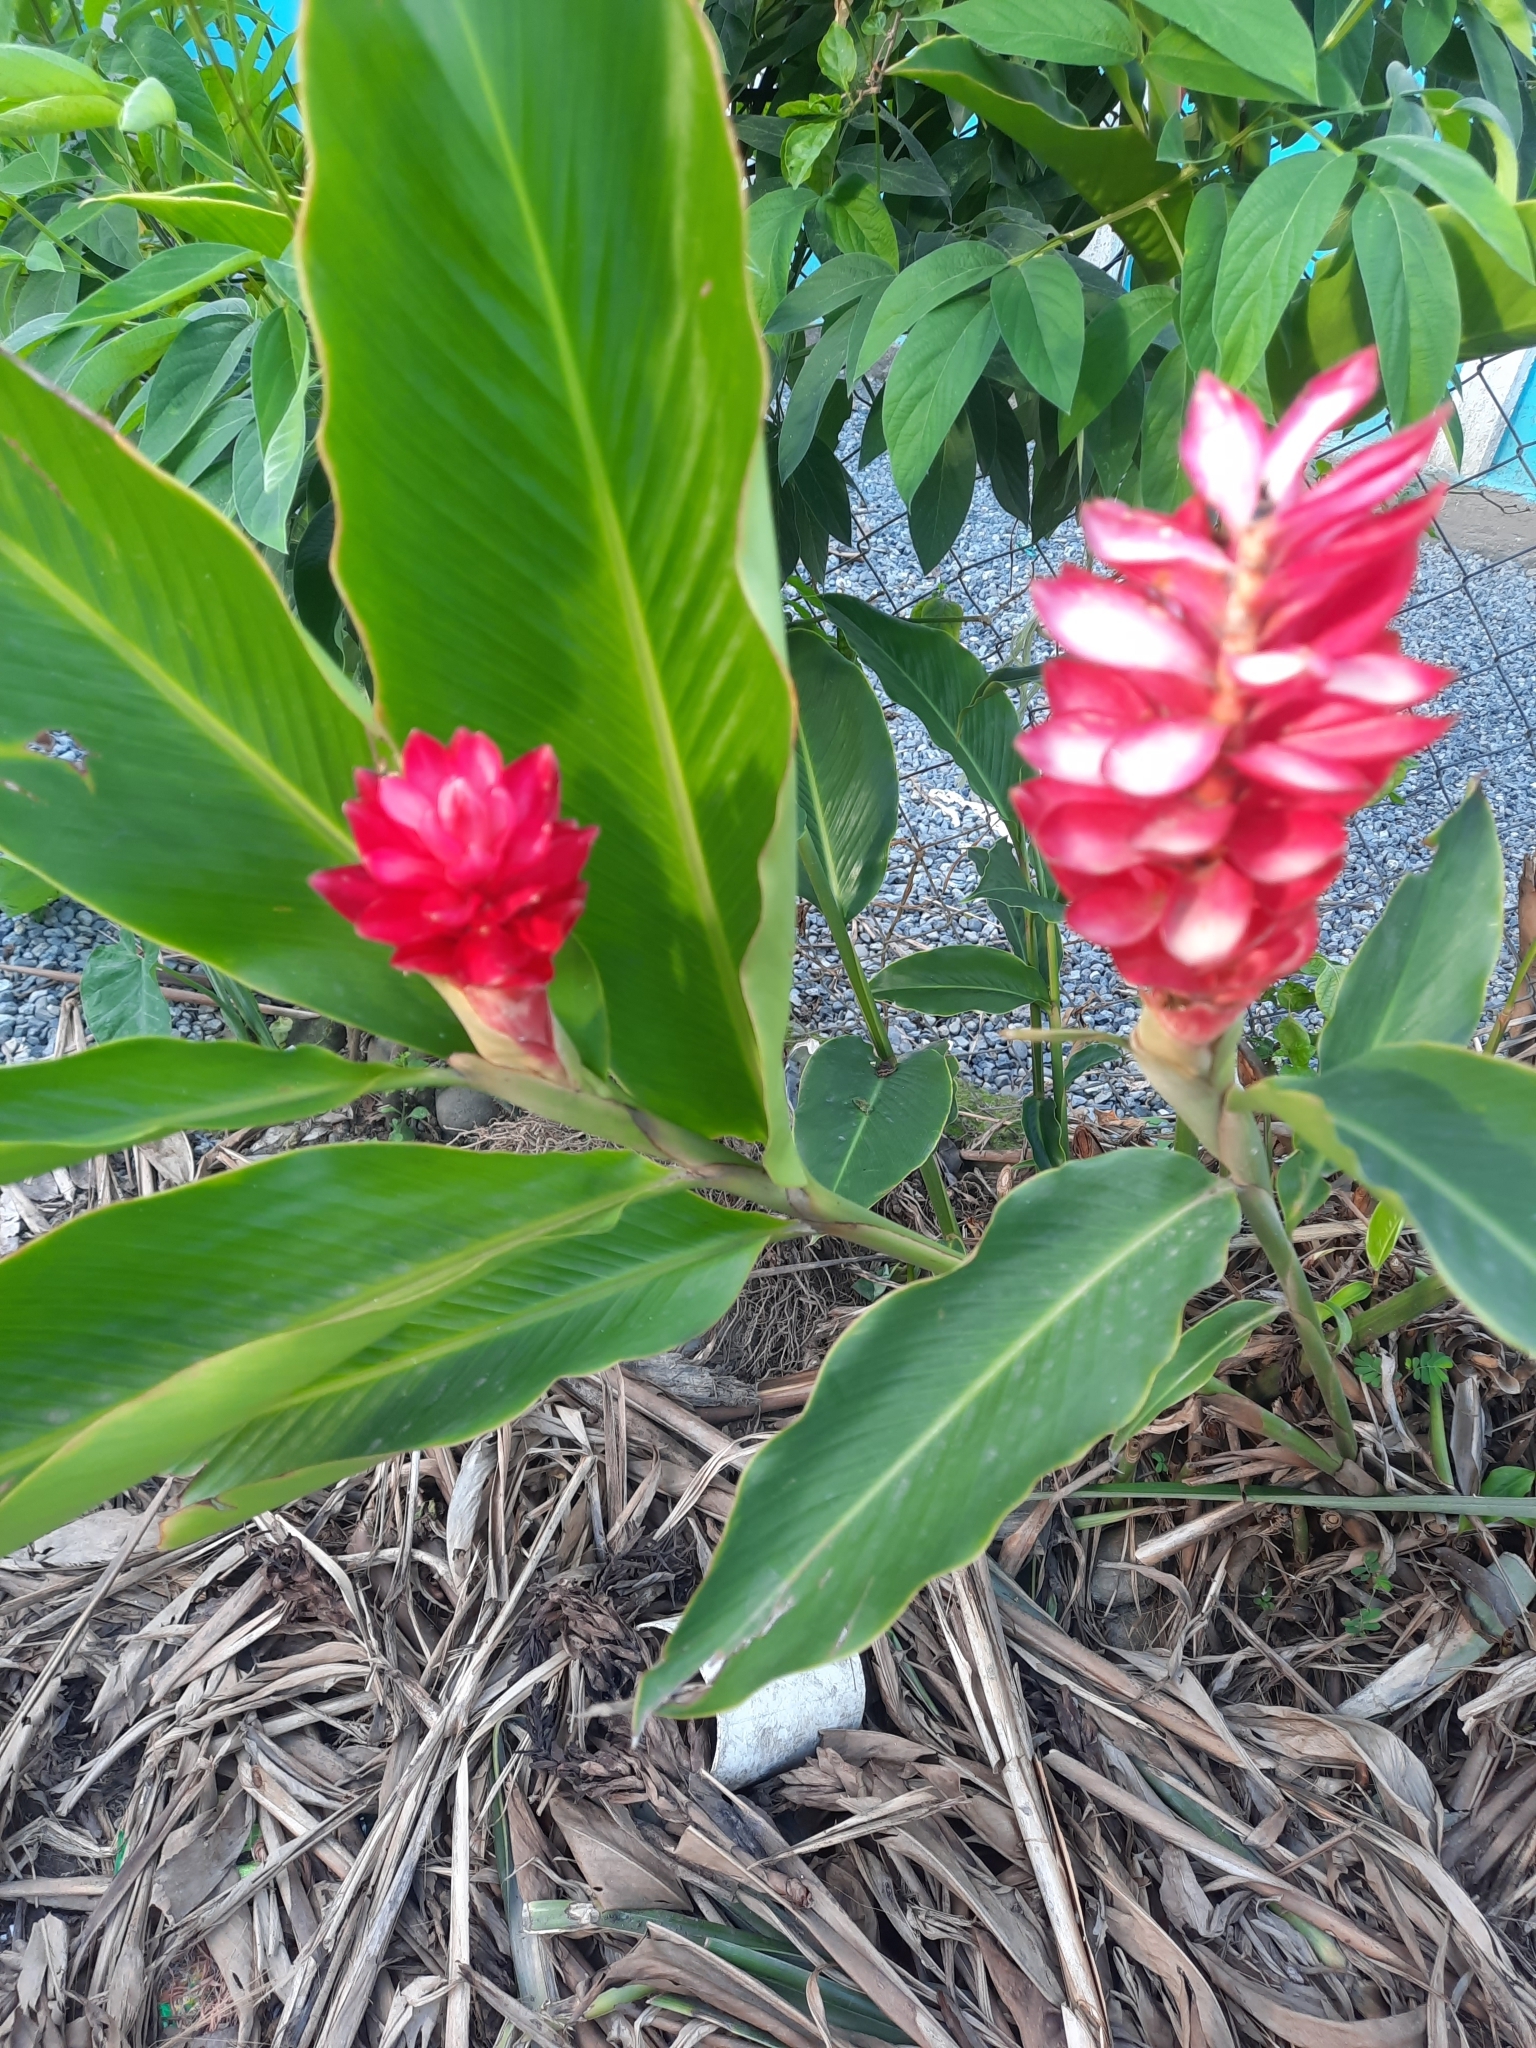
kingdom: Plantae
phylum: Tracheophyta
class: Liliopsida
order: Zingiberales
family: Zingiberaceae
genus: Alpinia
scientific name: Alpinia purpurata
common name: Red ginger
